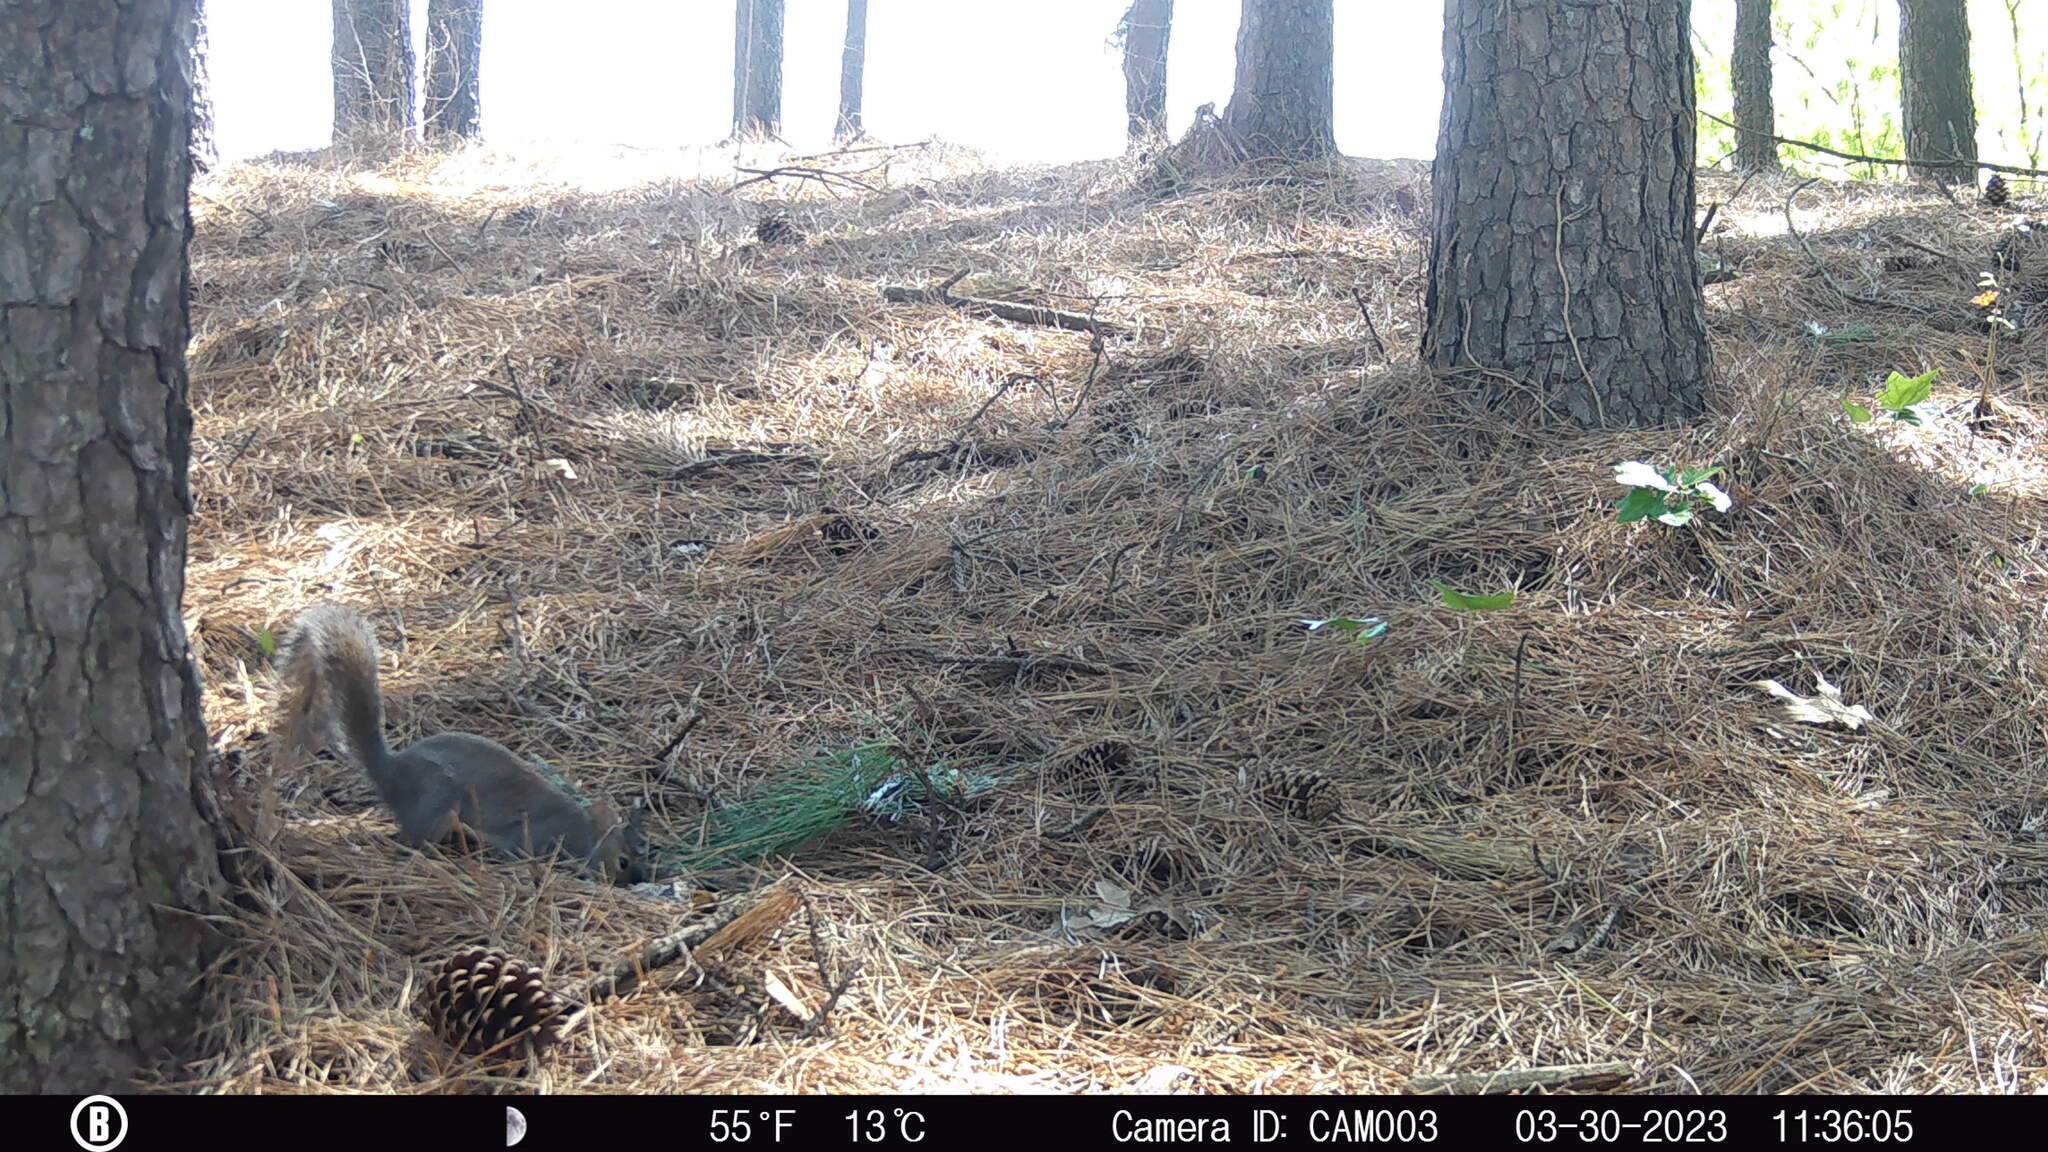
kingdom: Animalia
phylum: Chordata
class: Mammalia
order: Rodentia
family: Sciuridae
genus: Sciurus
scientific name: Sciurus carolinensis
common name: Eastern gray squirrel
